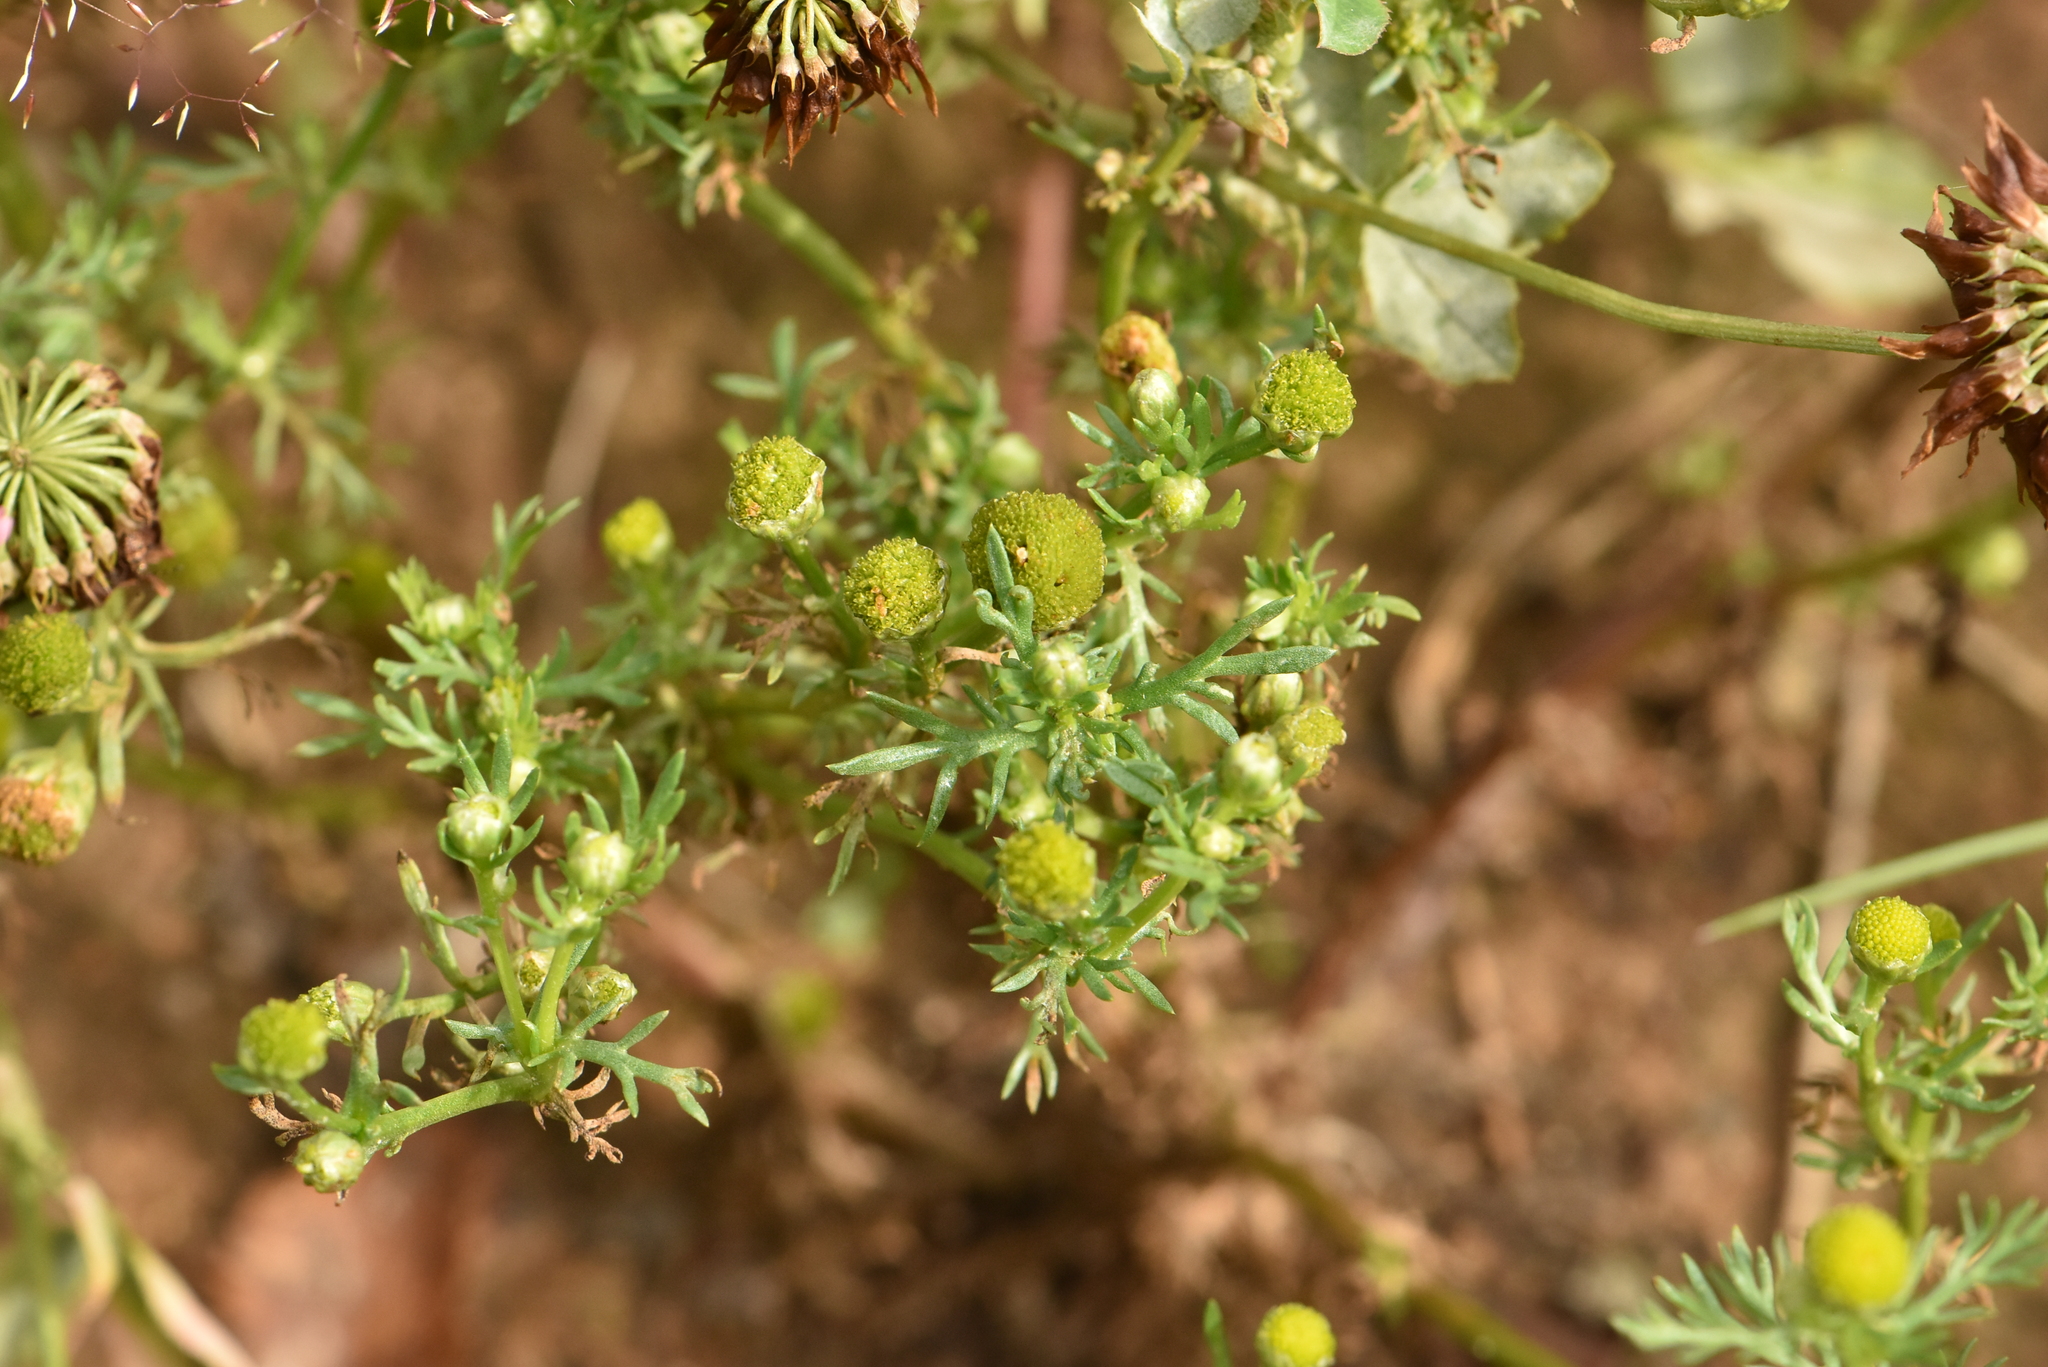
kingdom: Plantae
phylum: Tracheophyta
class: Magnoliopsida
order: Asterales
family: Asteraceae
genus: Matricaria
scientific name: Matricaria discoidea
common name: Disc mayweed
